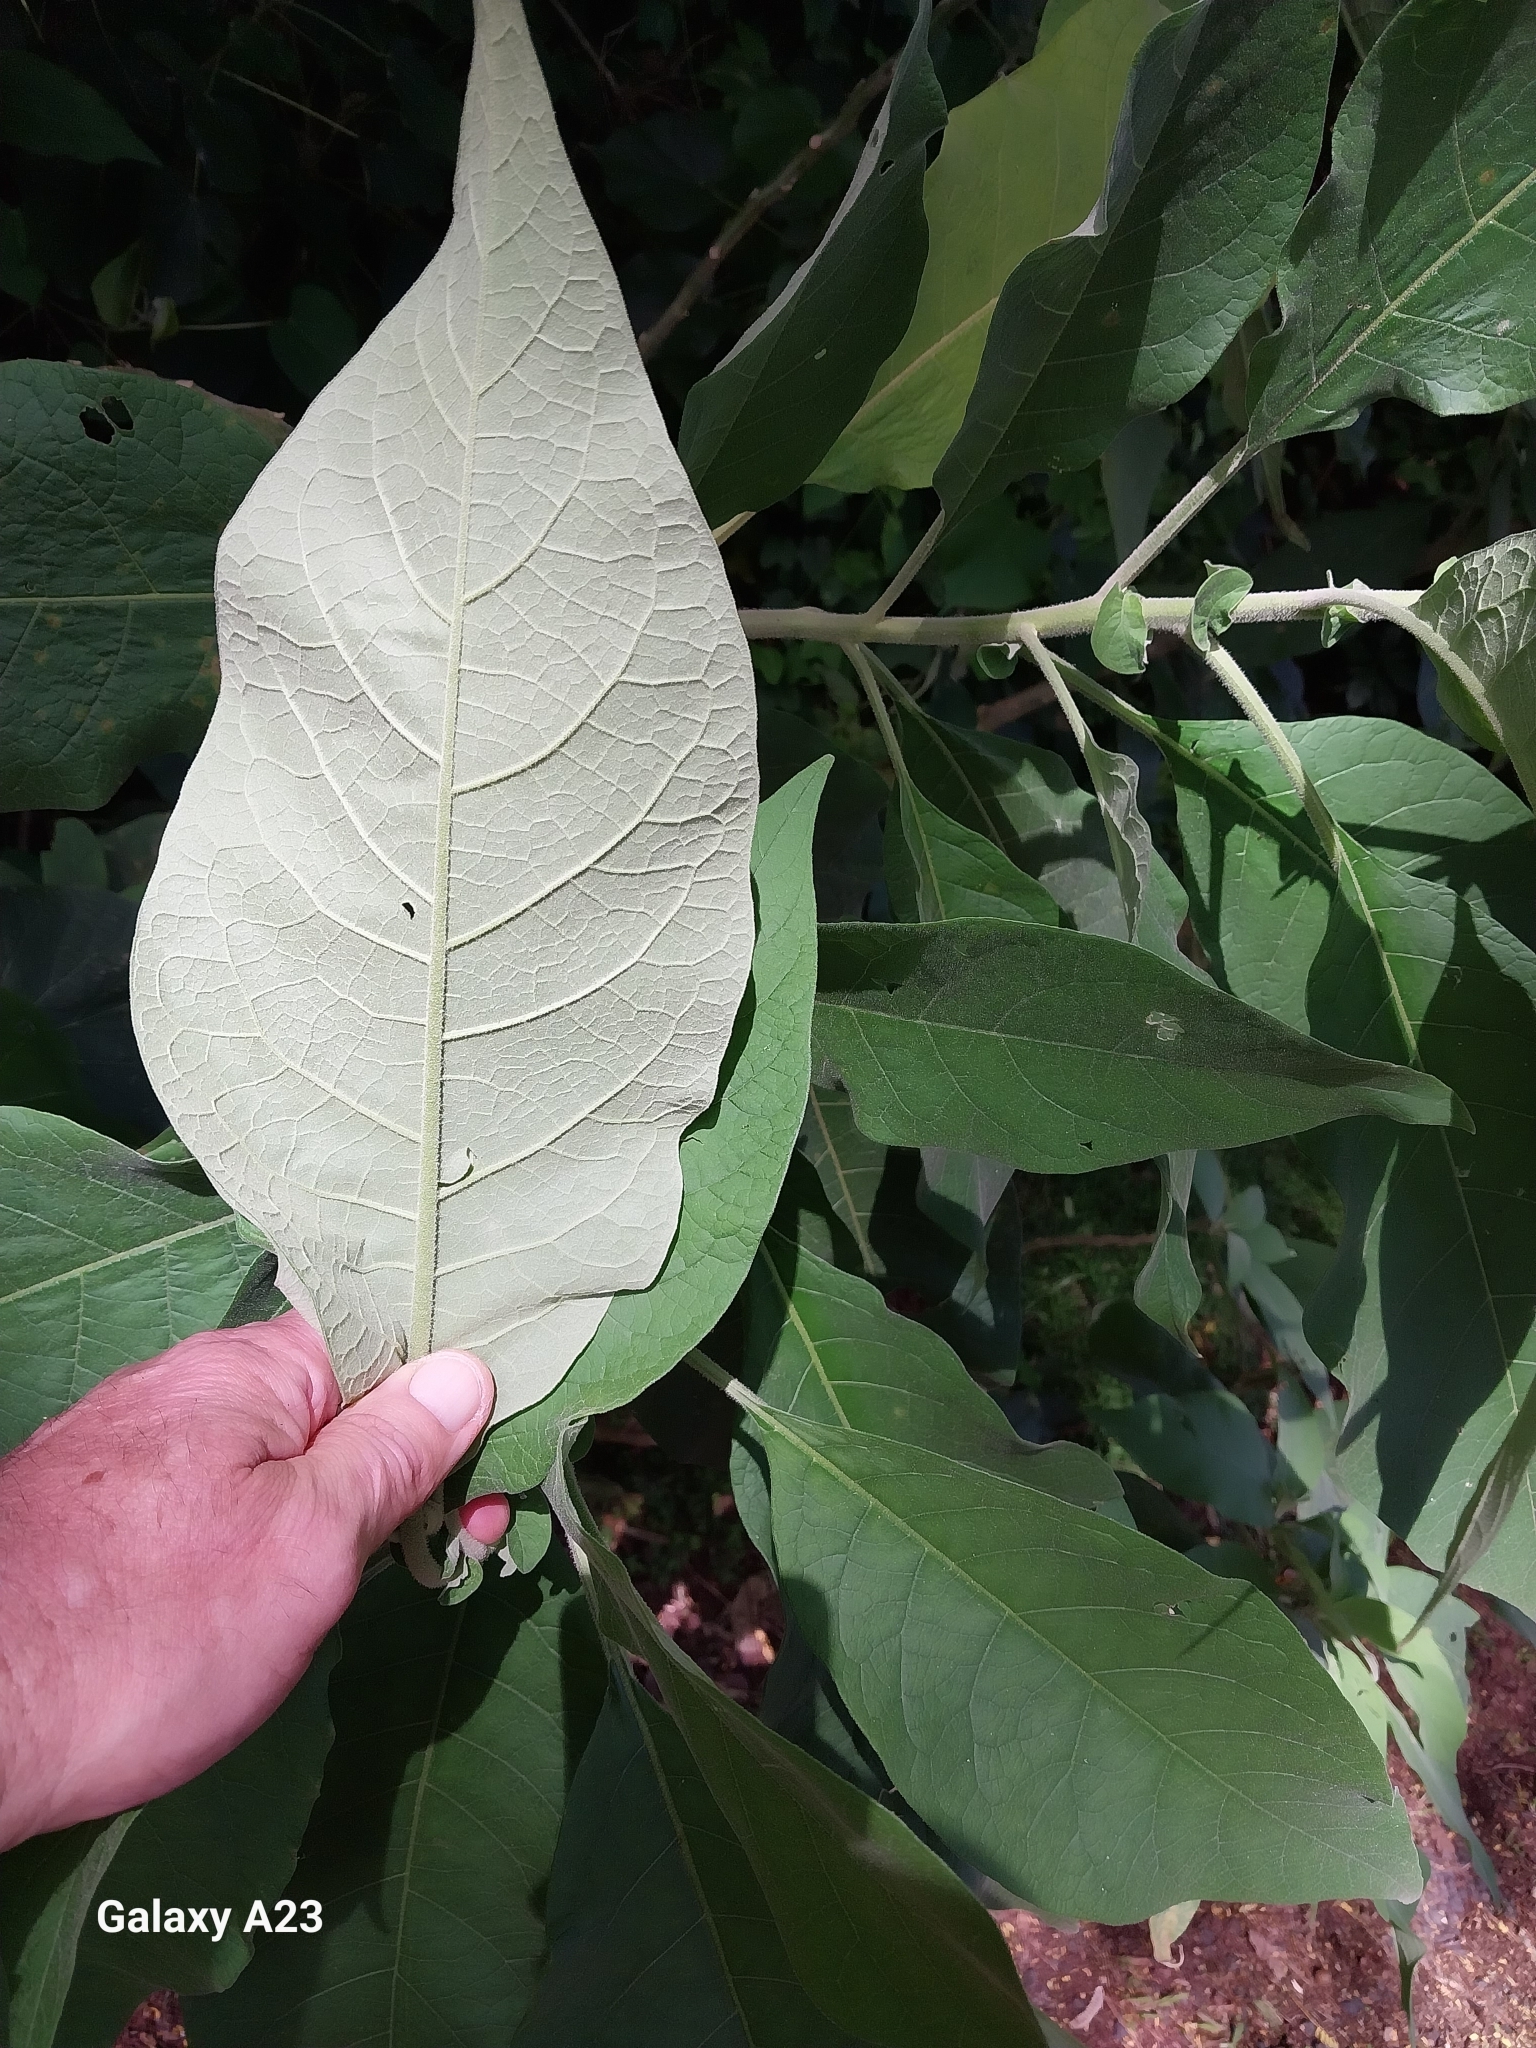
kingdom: Plantae
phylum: Tracheophyta
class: Magnoliopsida
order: Solanales
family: Solanaceae
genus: Solanum
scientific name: Solanum mauritianum
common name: Earleaf nightshade
